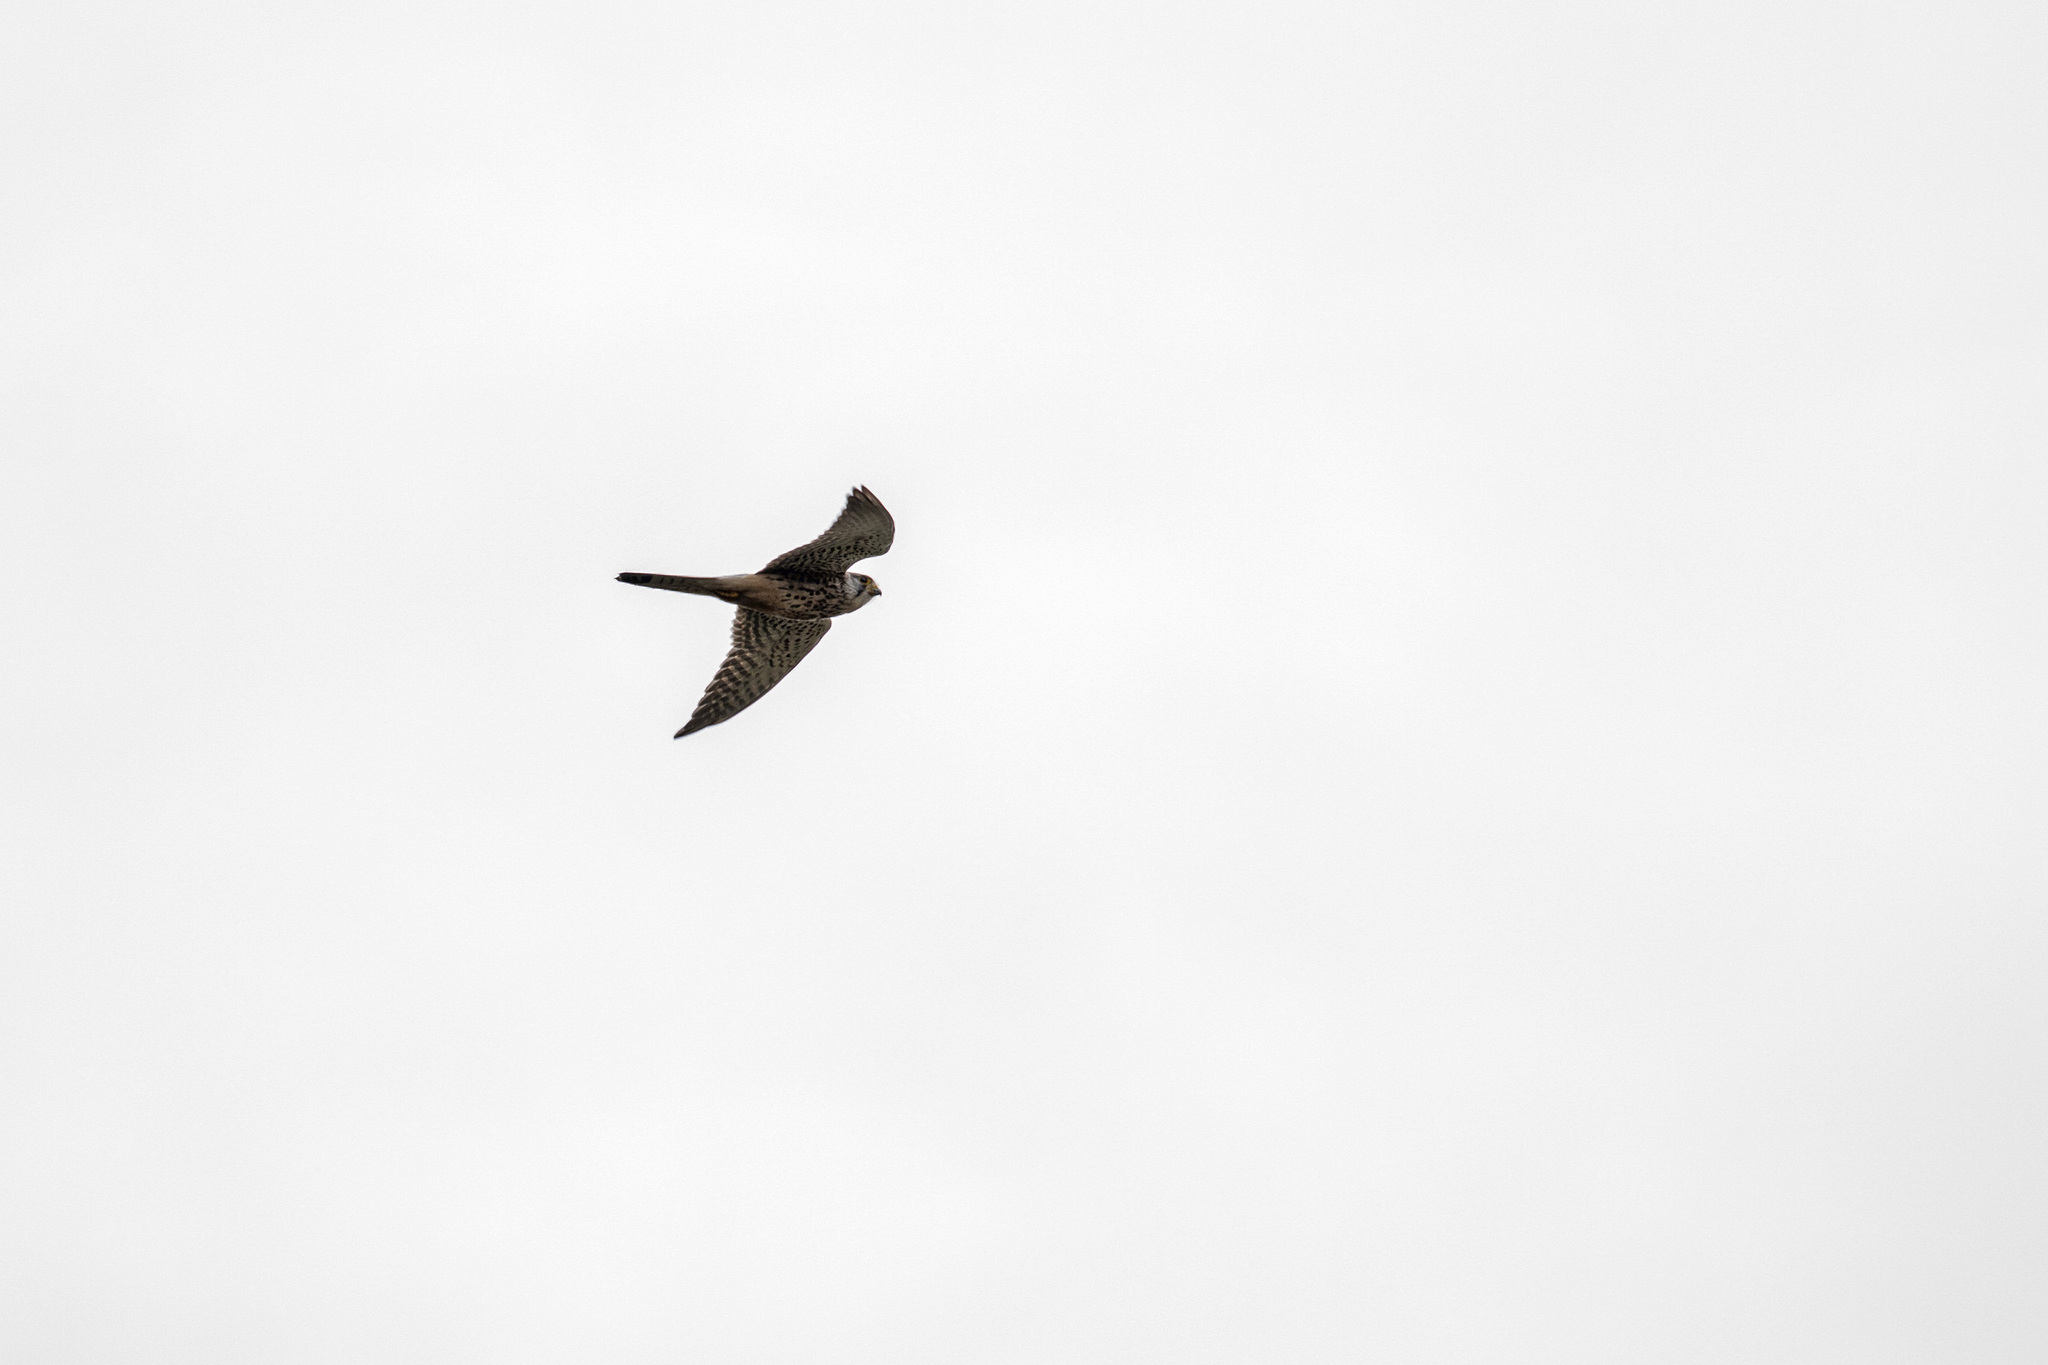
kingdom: Animalia
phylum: Chordata
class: Aves
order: Falconiformes
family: Falconidae
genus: Falco
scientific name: Falco tinnunculus
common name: Common kestrel
